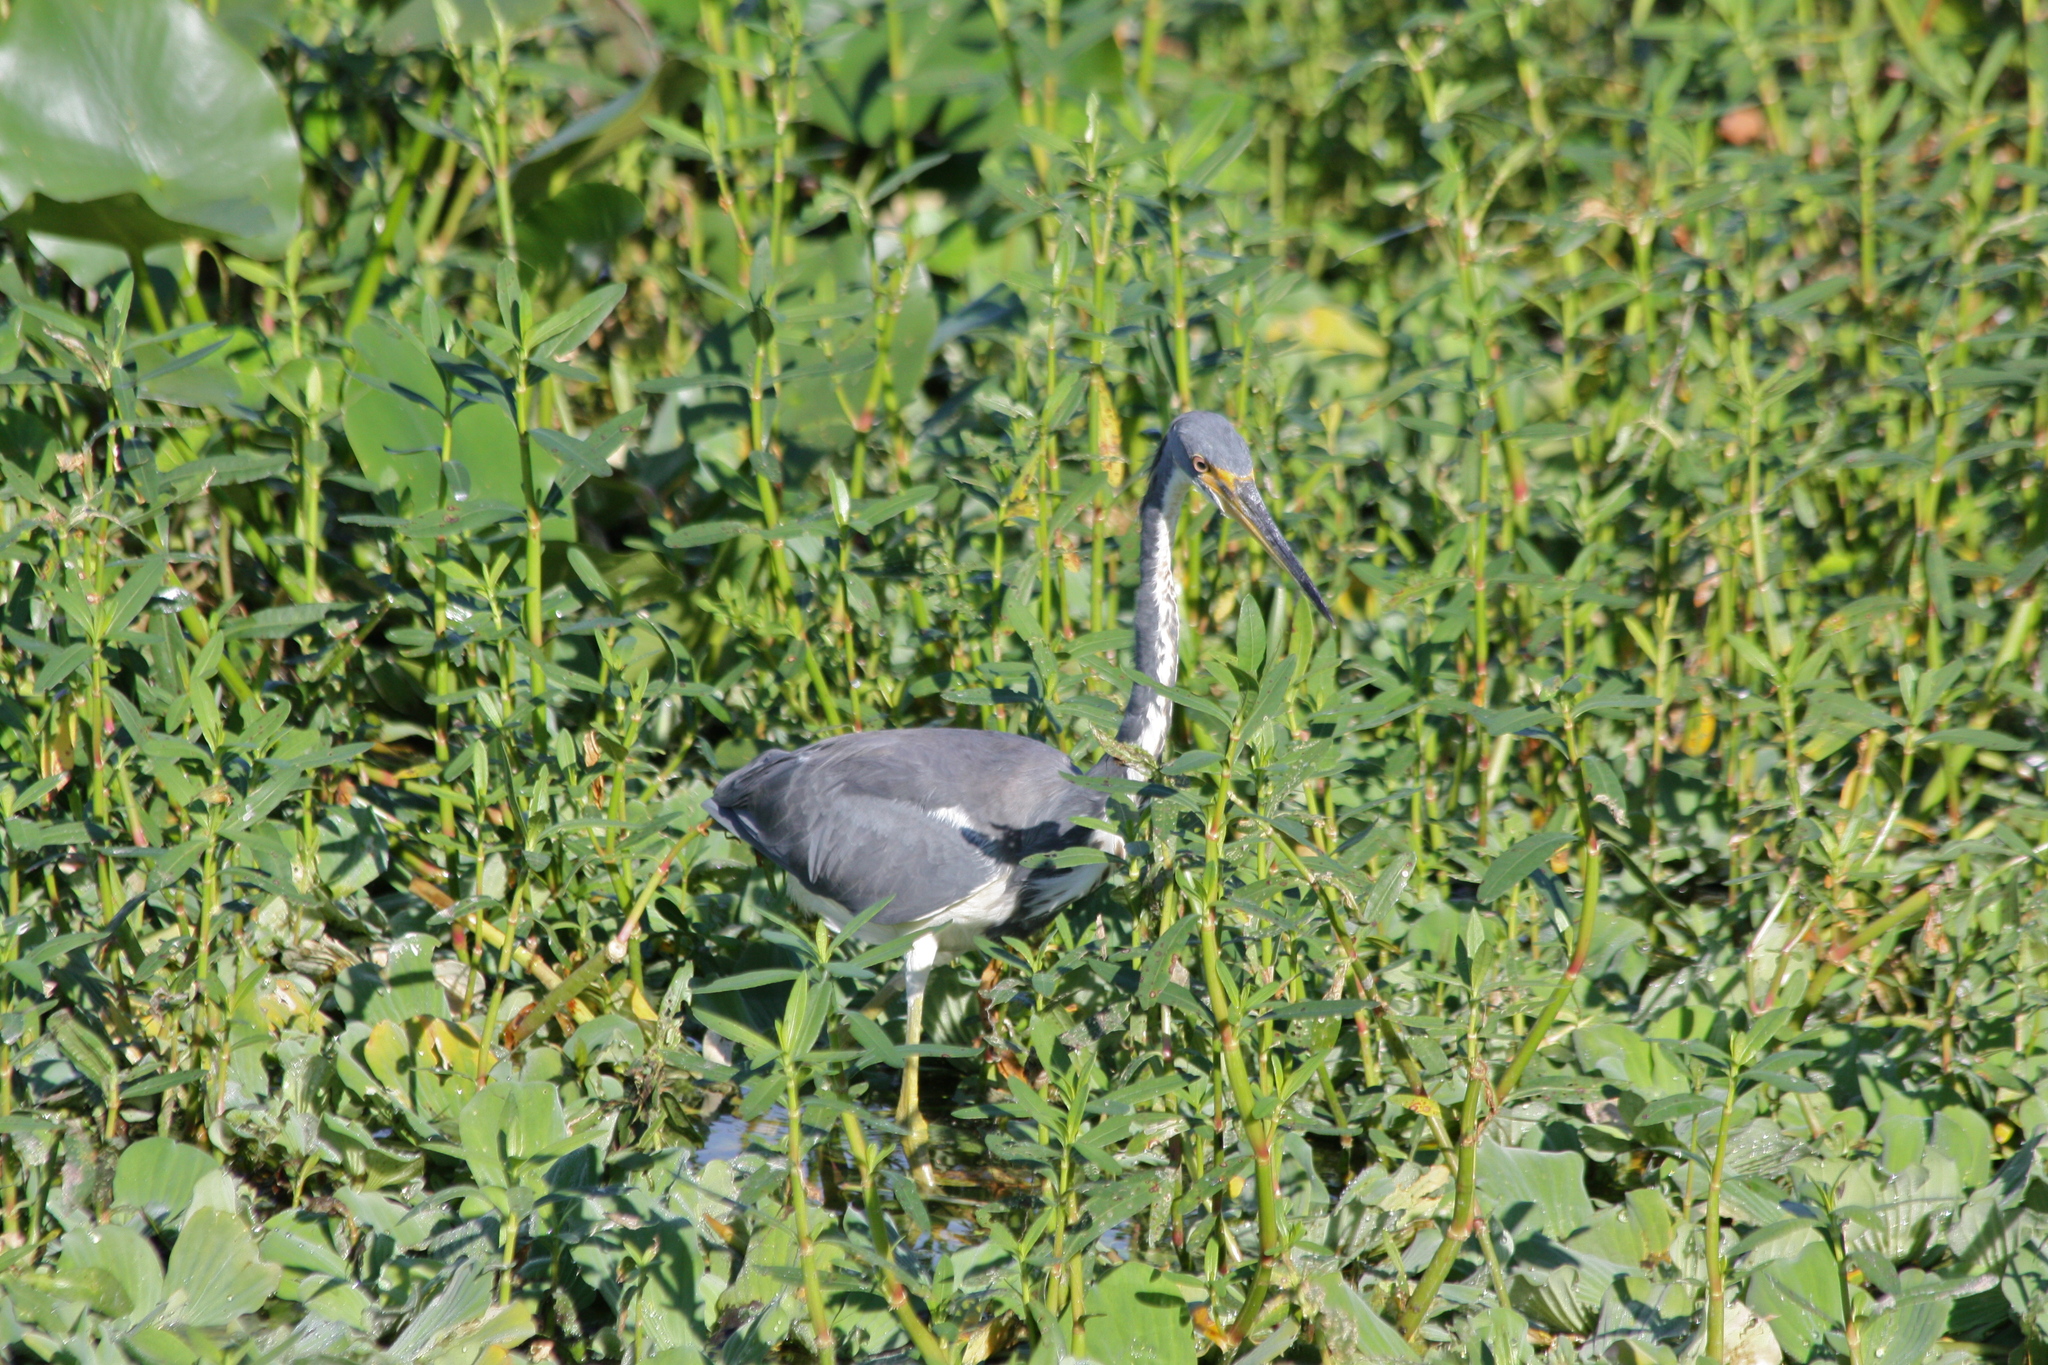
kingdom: Animalia
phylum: Chordata
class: Aves
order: Pelecaniformes
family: Ardeidae
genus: Egretta
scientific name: Egretta tricolor
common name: Tricolored heron
